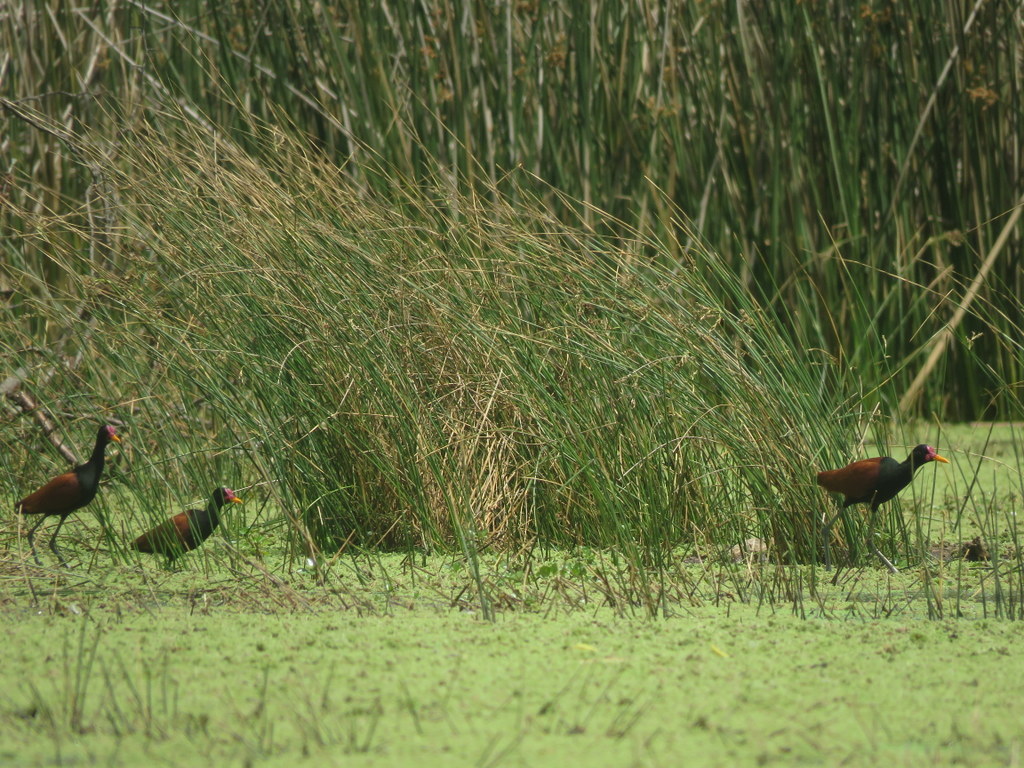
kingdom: Animalia
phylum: Chordata
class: Aves
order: Charadriiformes
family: Jacanidae
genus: Jacana
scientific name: Jacana jacana
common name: Wattled jacana
